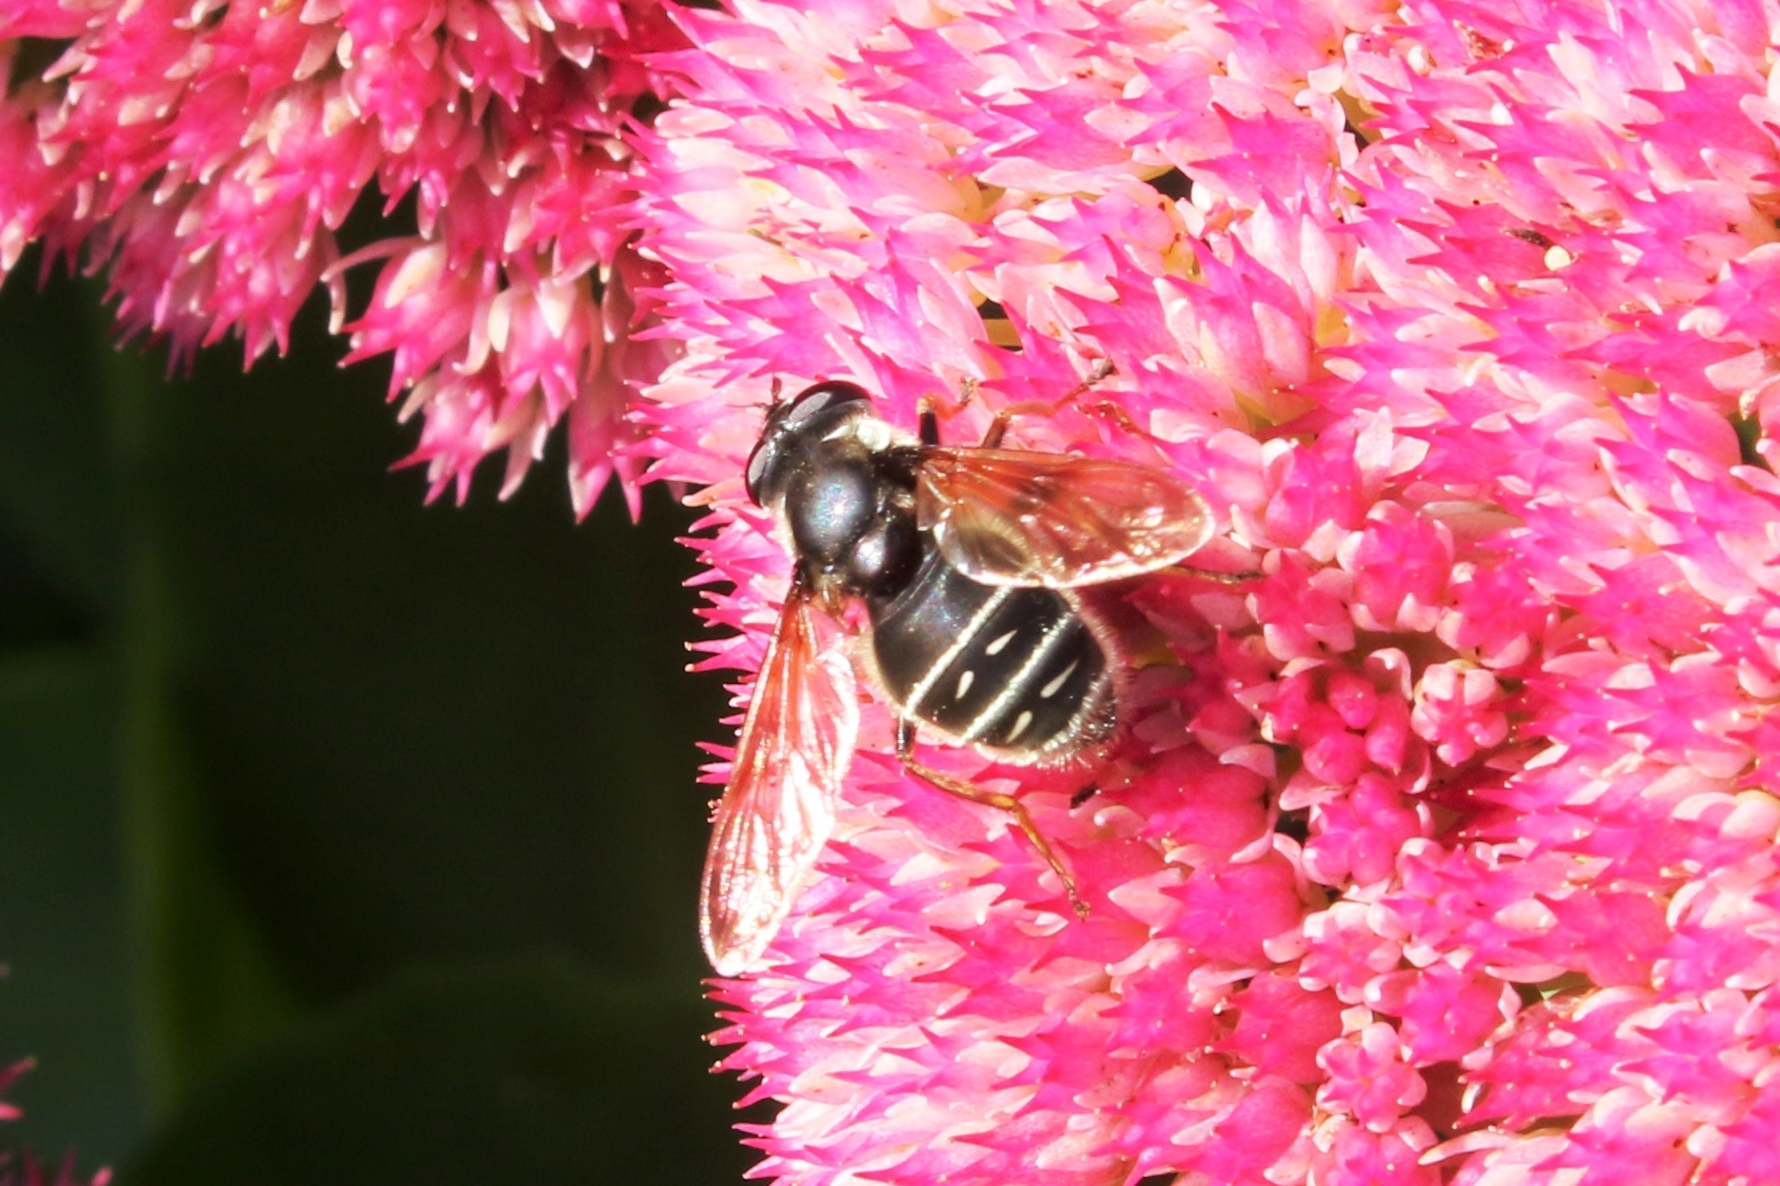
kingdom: Animalia
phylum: Arthropoda
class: Insecta
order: Diptera
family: Syrphidae
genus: Sericomyia
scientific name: Sericomyia militaris
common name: Narrow-banded pond fly
